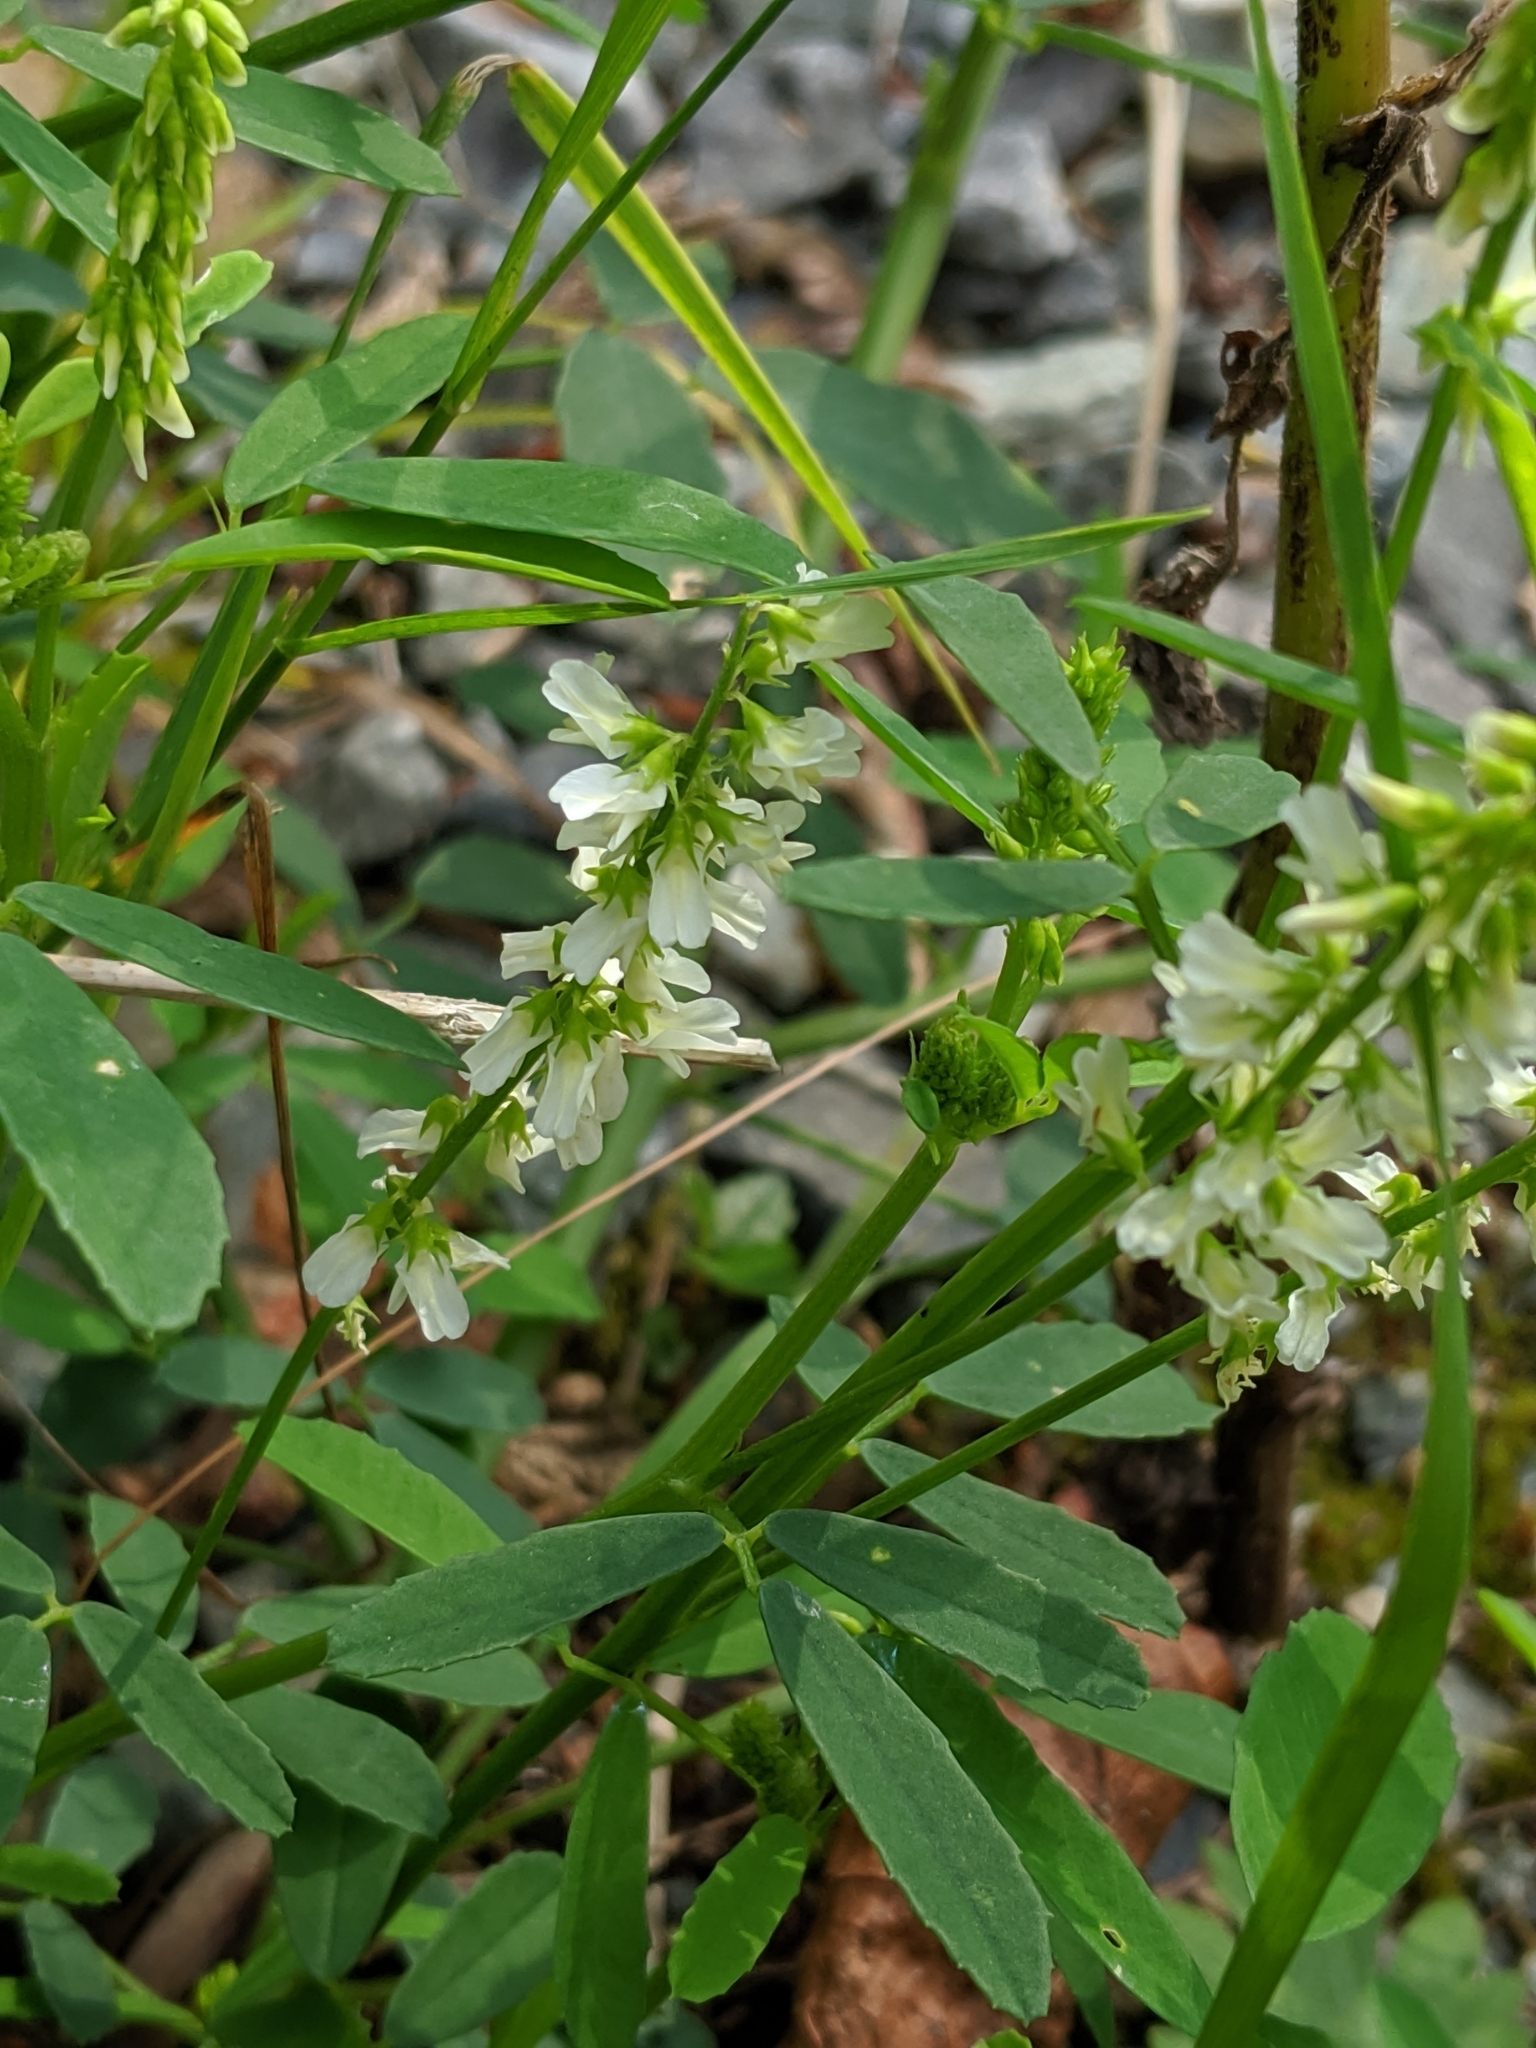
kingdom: Plantae
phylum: Tracheophyta
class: Magnoliopsida
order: Fabales
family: Fabaceae
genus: Melilotus
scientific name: Melilotus albus
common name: White melilot
